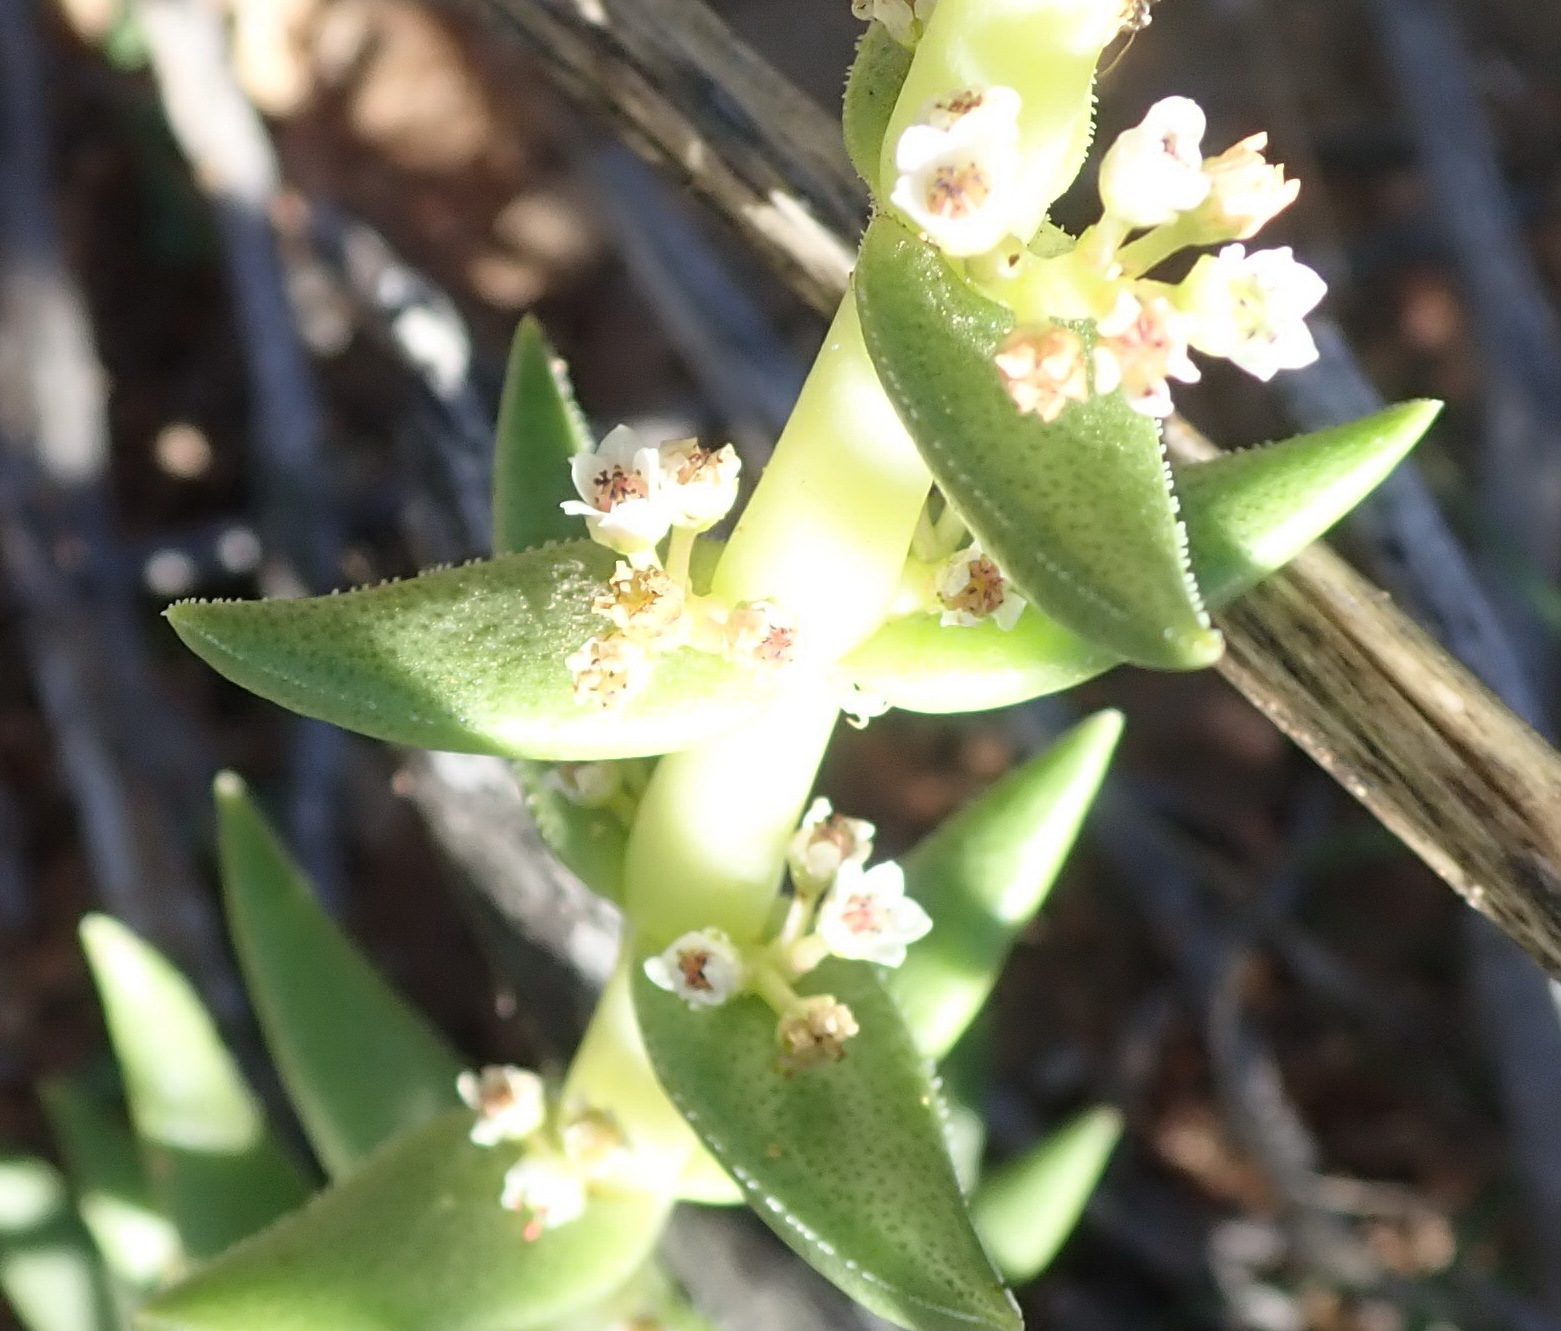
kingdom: Plantae
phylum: Tracheophyta
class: Magnoliopsida
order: Saxifragales
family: Crassulaceae
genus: Crassula
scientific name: Crassula capitella
